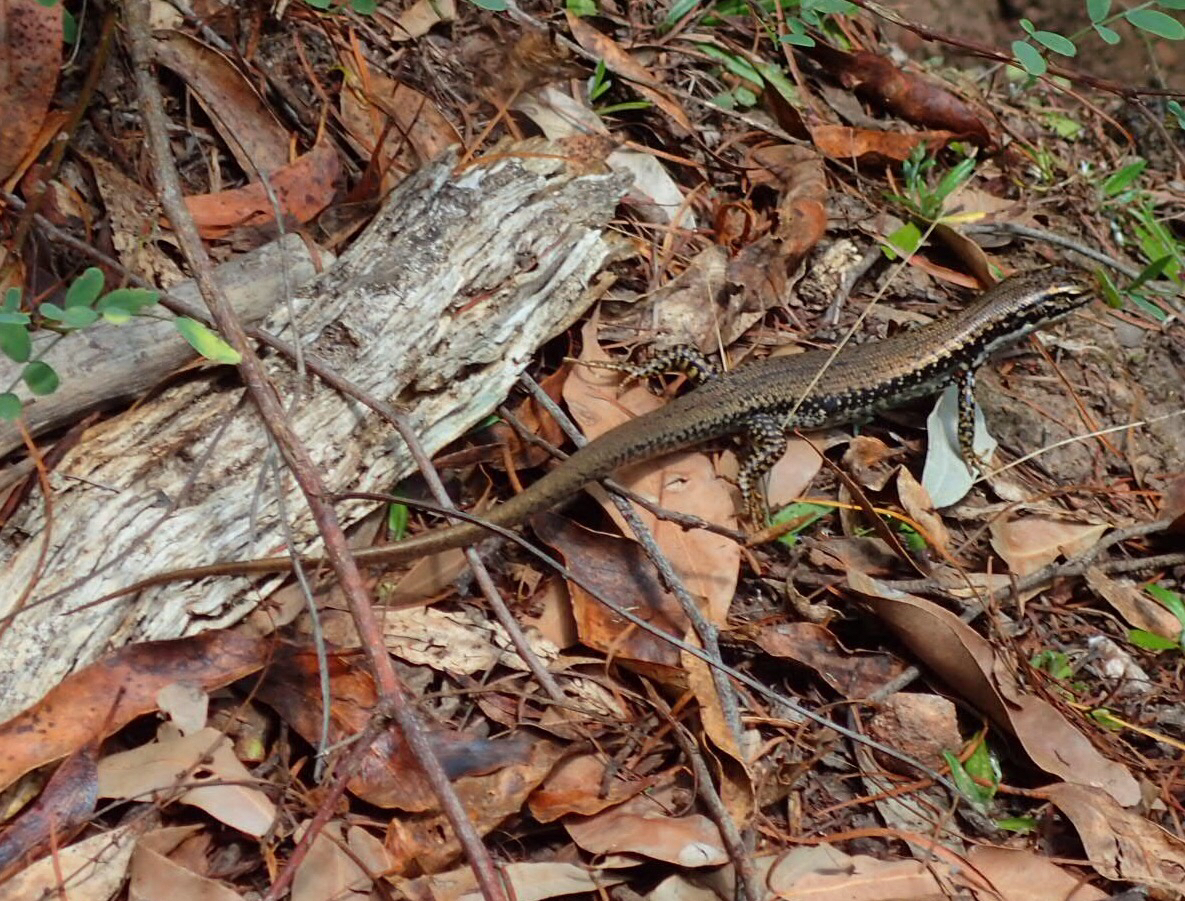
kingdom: Animalia
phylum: Chordata
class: Squamata
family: Scincidae
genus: Eulamprus
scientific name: Eulamprus heatwolei
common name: Warm-temperate water-skink
